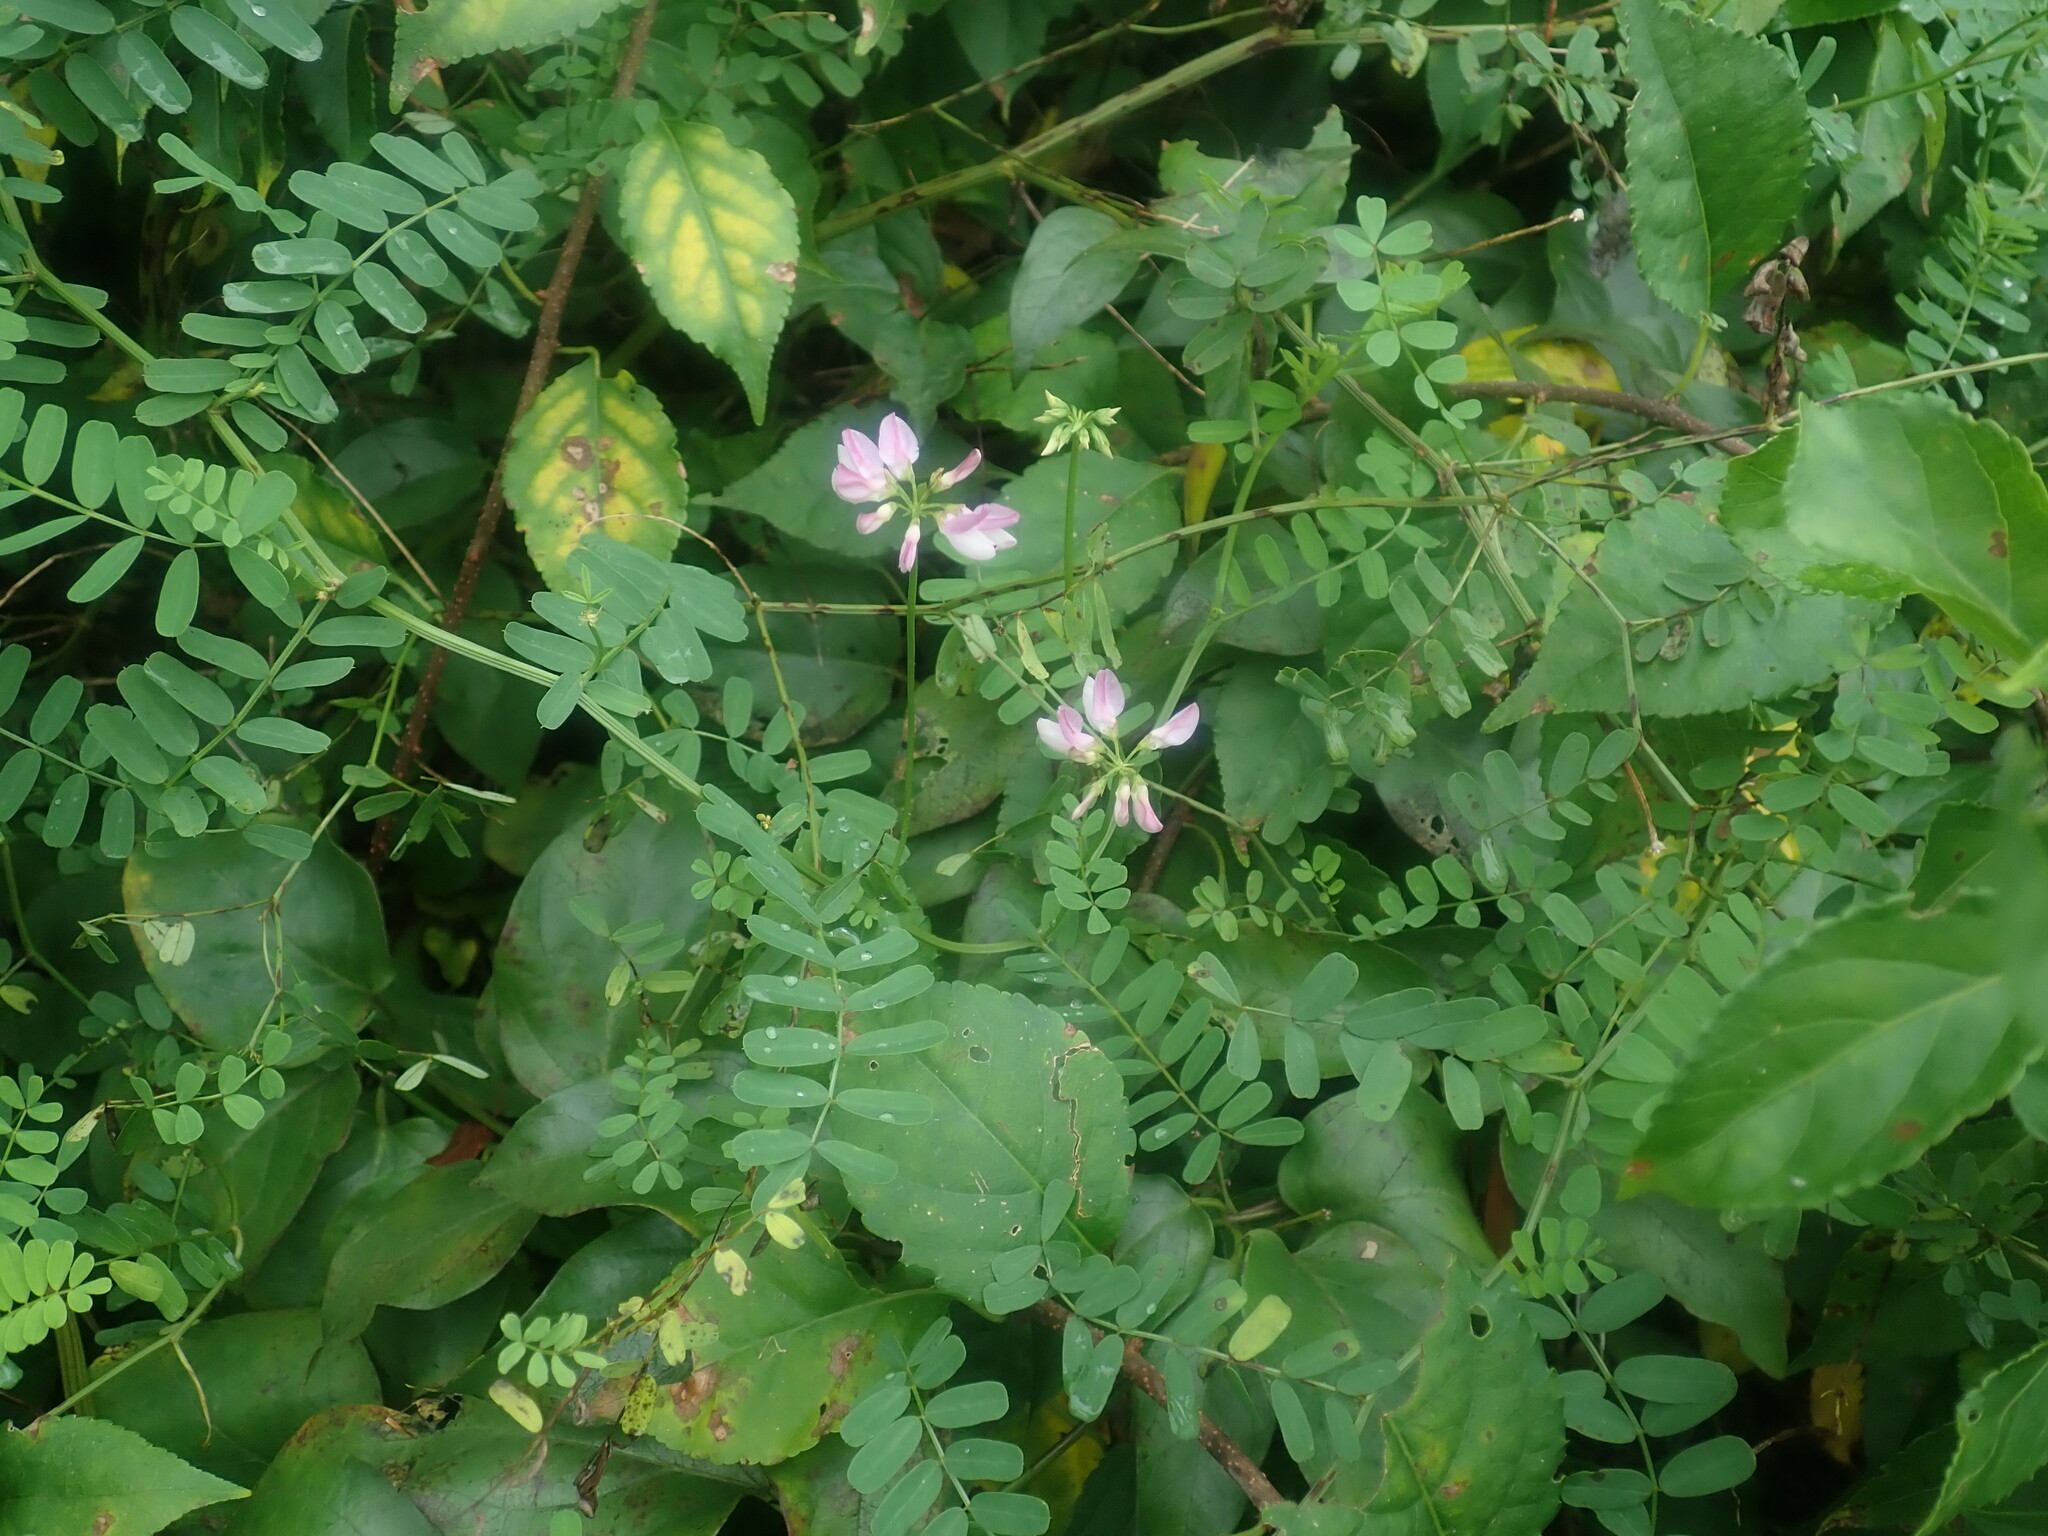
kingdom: Plantae
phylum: Tracheophyta
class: Magnoliopsida
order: Fabales
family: Fabaceae
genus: Coronilla
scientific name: Coronilla varia
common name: Crownvetch
